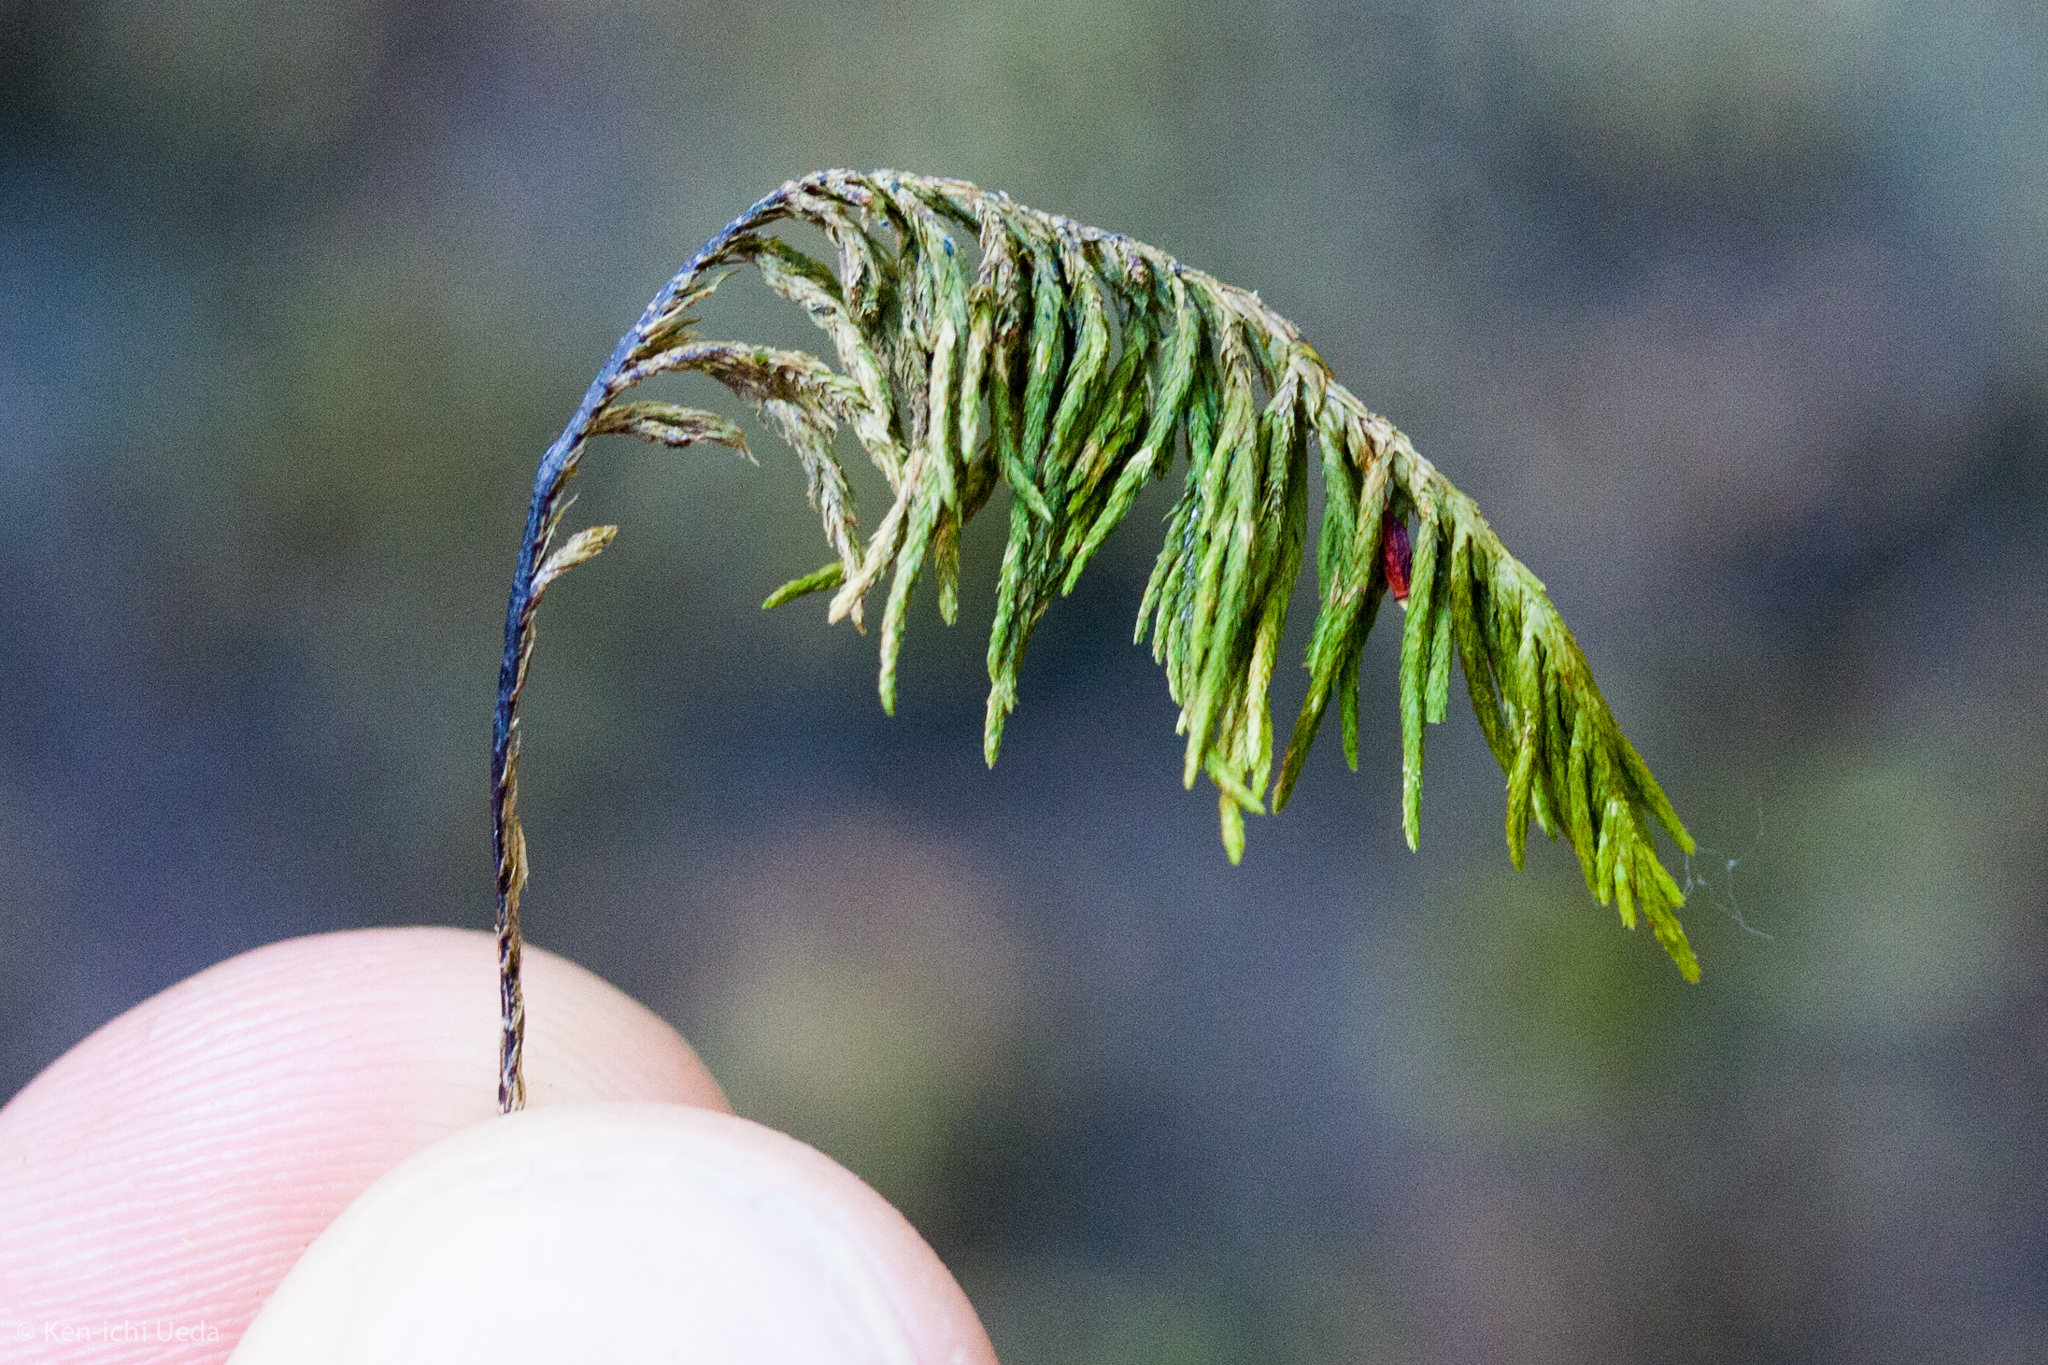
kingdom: Plantae
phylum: Bryophyta
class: Bryopsida
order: Hypnales
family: Cryphaeaceae
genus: Dendroalsia
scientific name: Dendroalsia abietina
